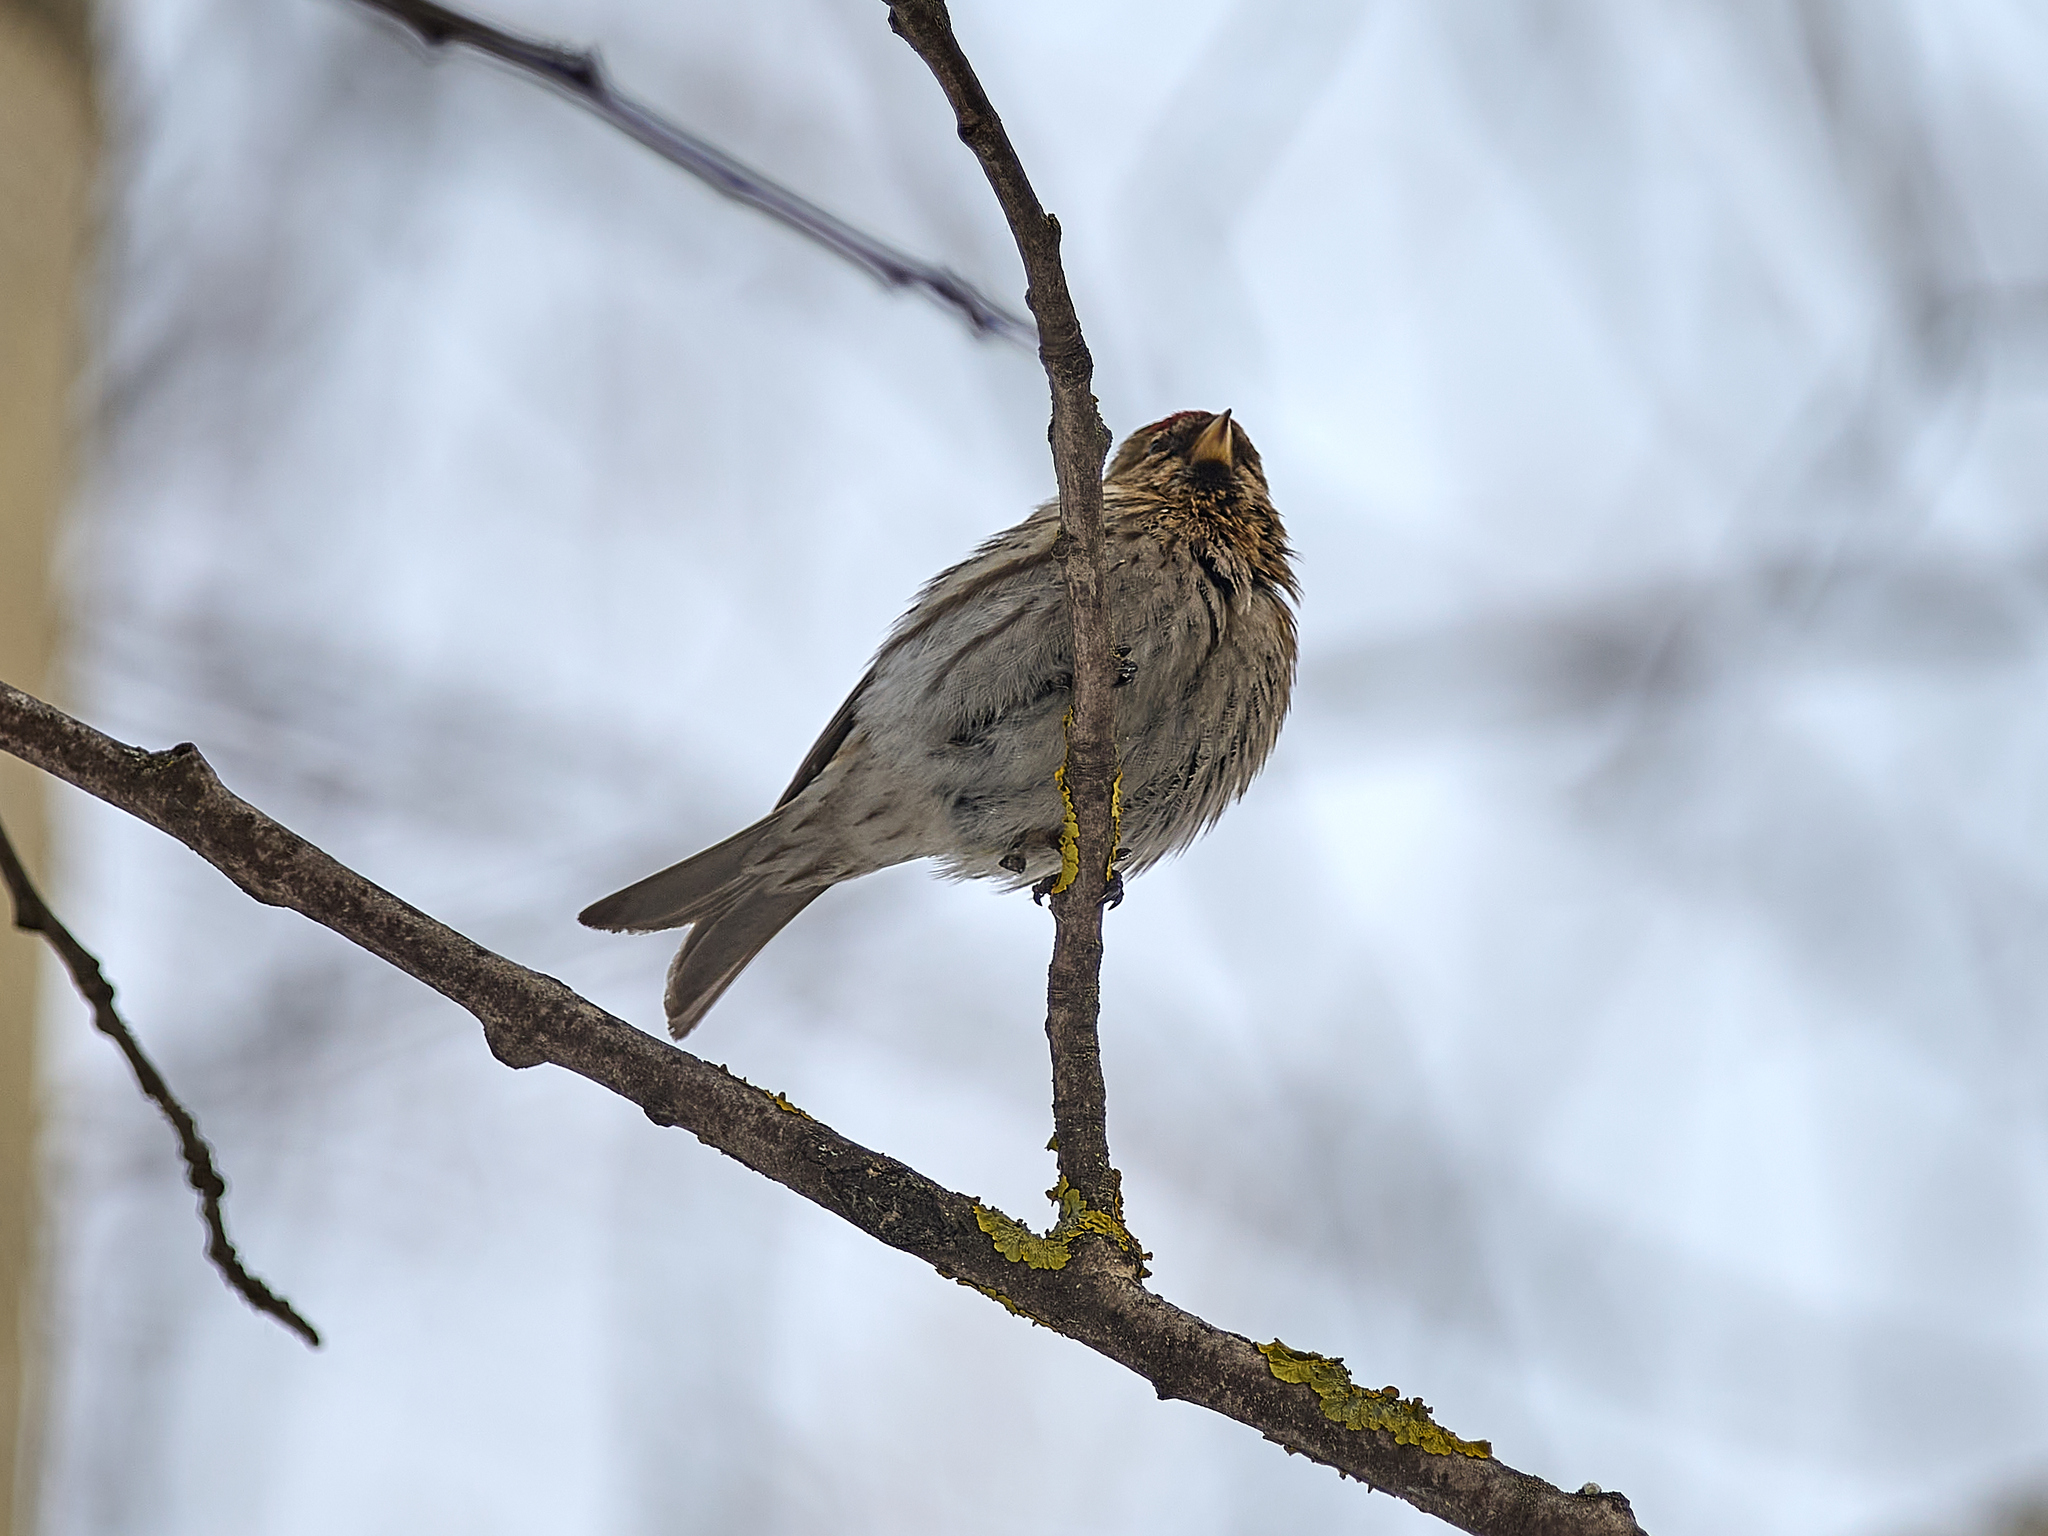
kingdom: Animalia
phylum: Chordata
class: Aves
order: Passeriformes
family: Fringillidae
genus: Acanthis
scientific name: Acanthis flammea
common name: Common redpoll
